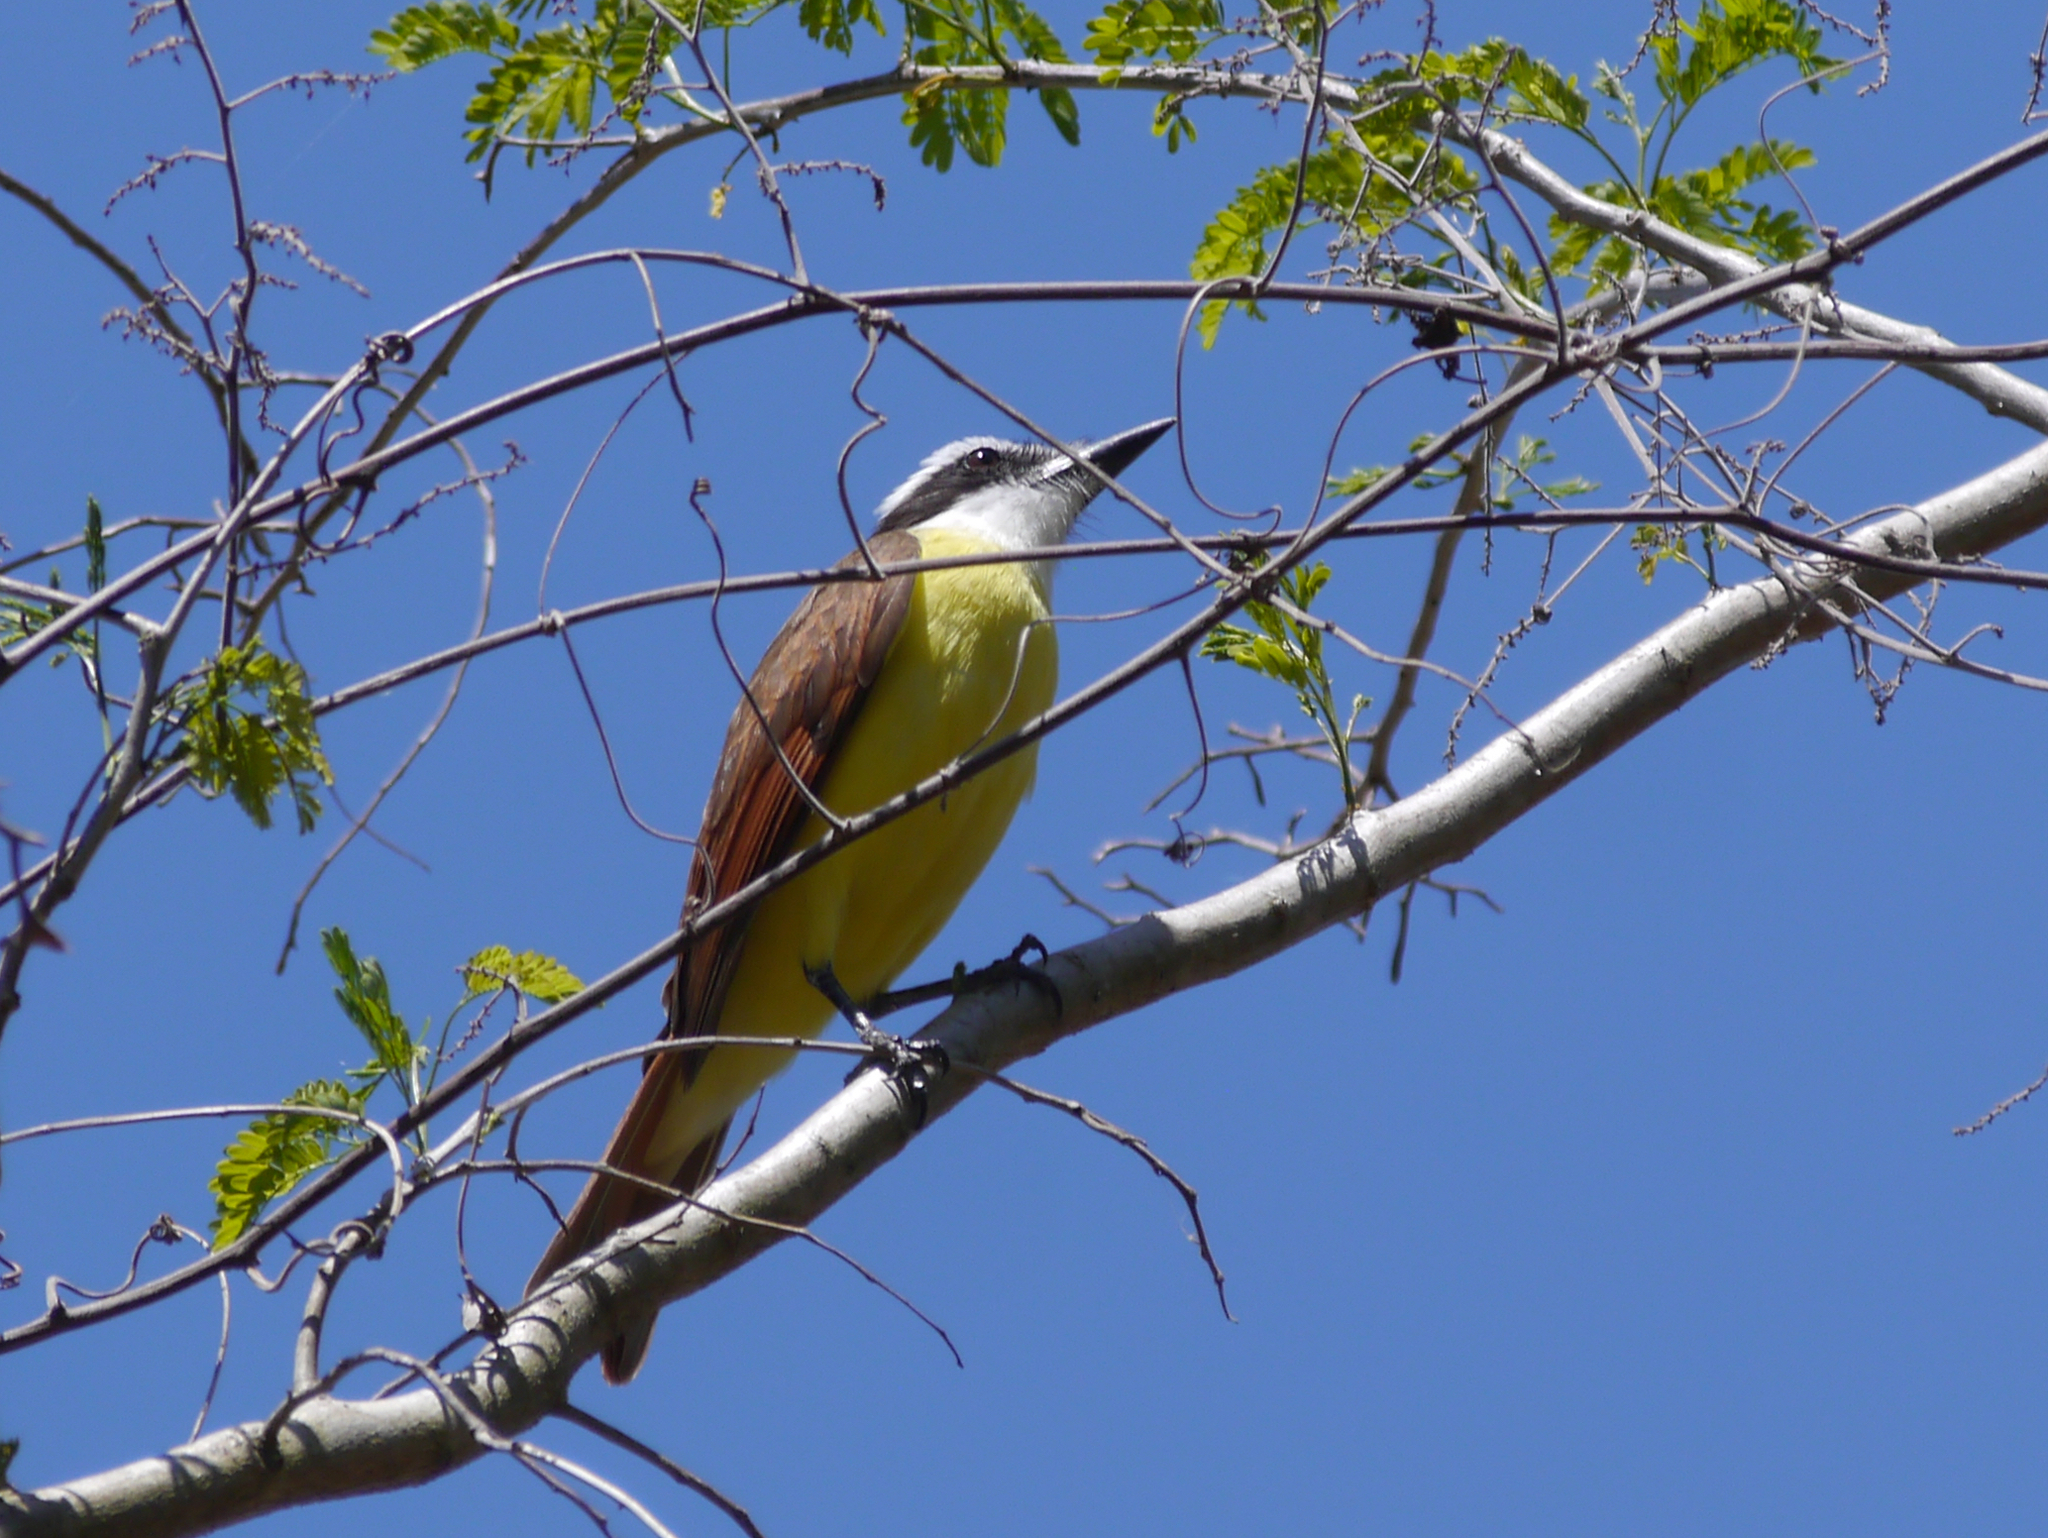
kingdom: Animalia
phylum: Chordata
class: Aves
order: Passeriformes
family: Tyrannidae
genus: Pitangus
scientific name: Pitangus sulphuratus
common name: Great kiskadee
